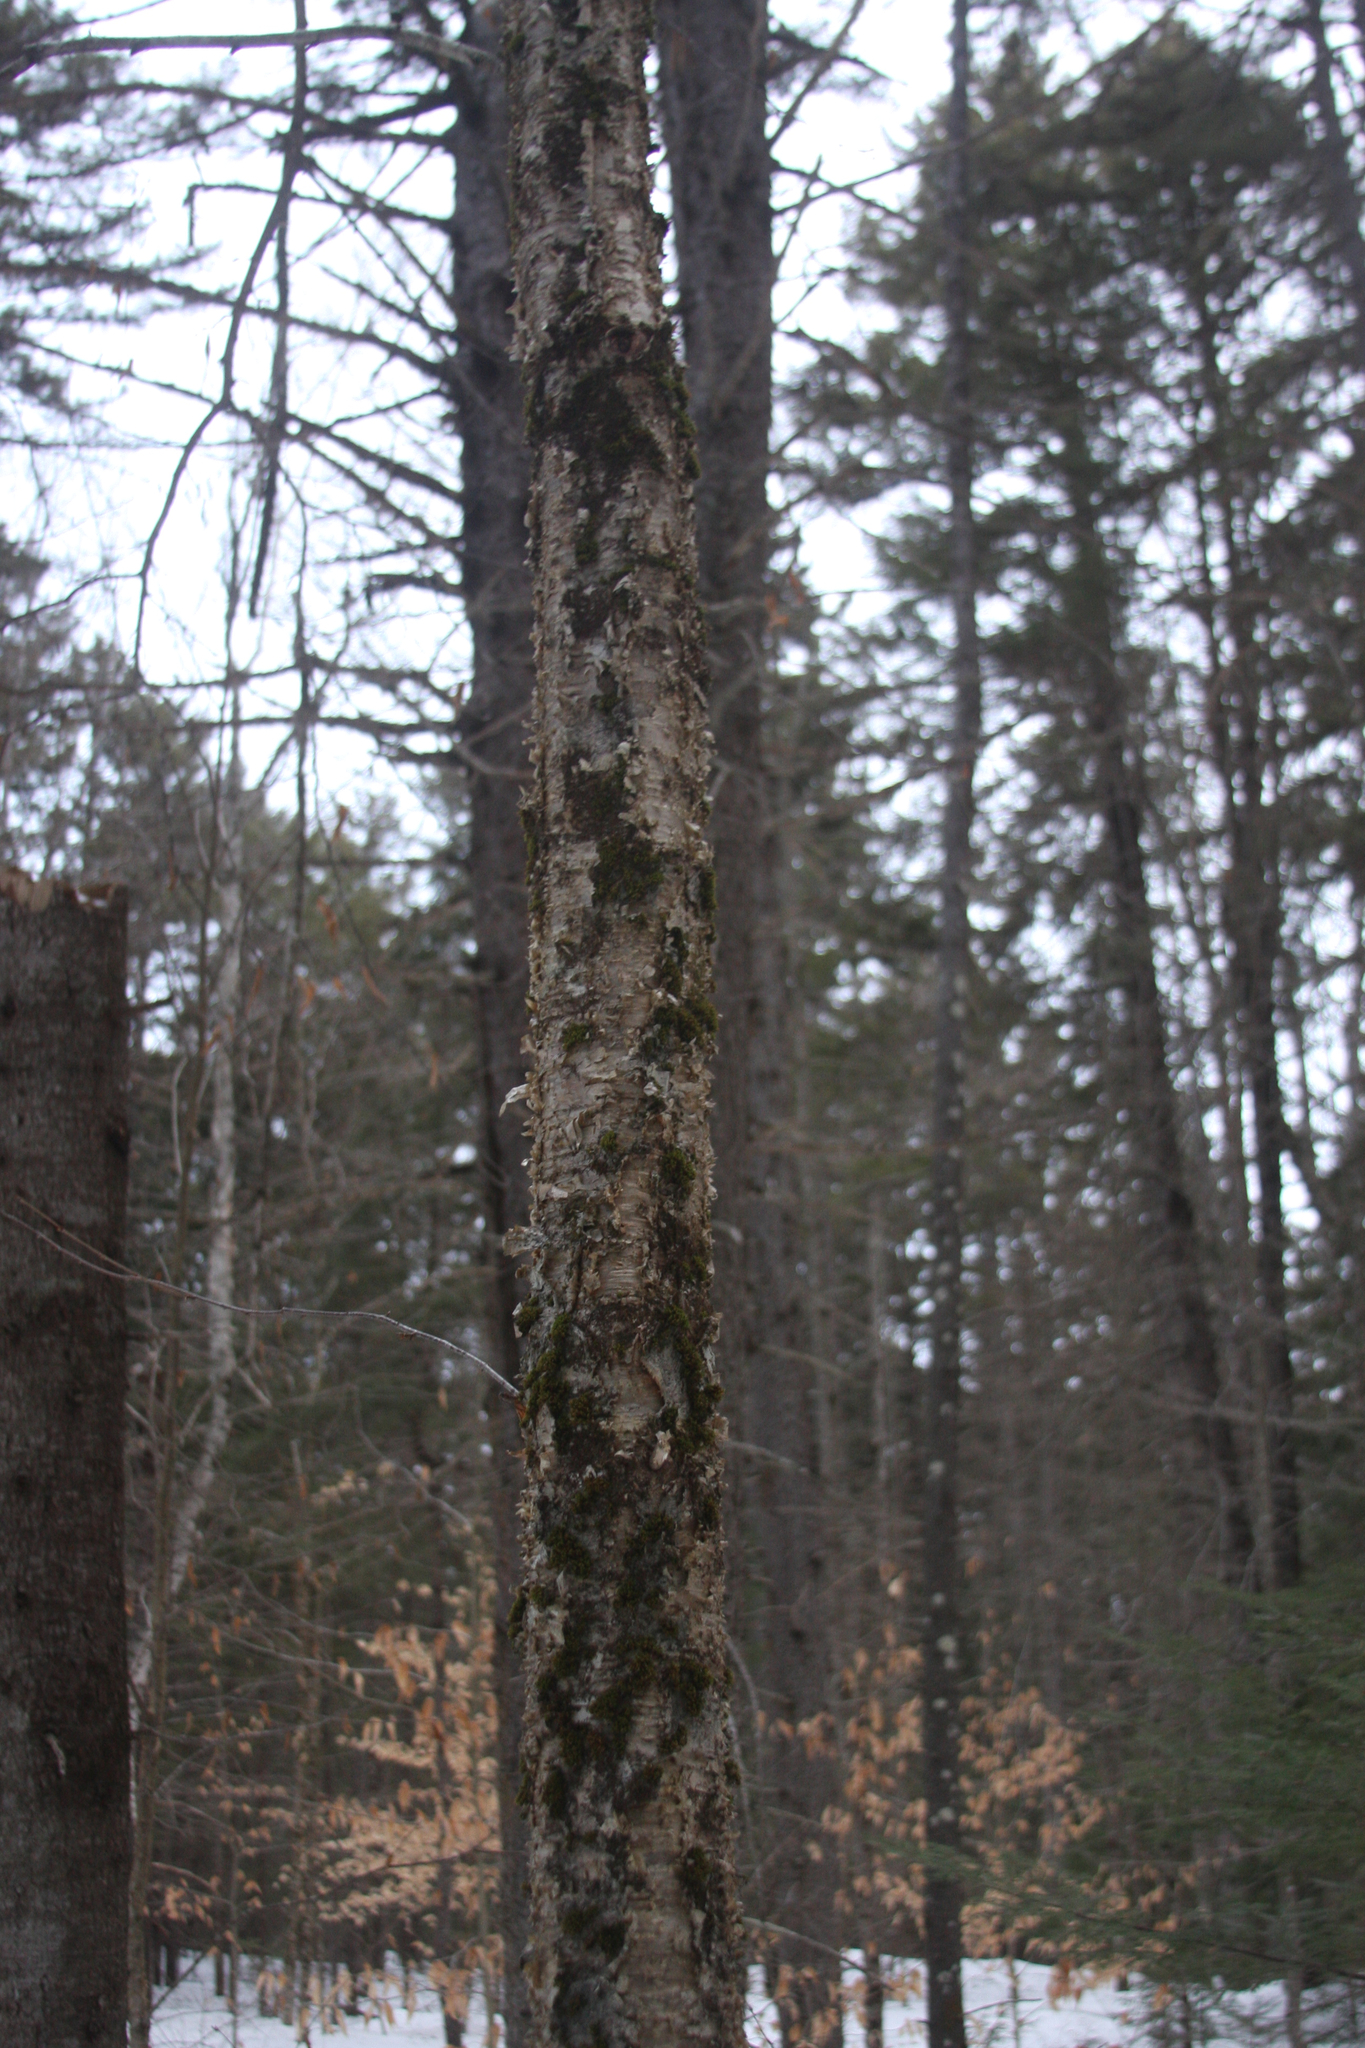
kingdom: Plantae
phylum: Bryophyta
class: Bryopsida
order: Orthotrichales
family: Orthotrichaceae
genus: Ulota
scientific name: Ulota crispa
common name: Crisped pincushion moss
